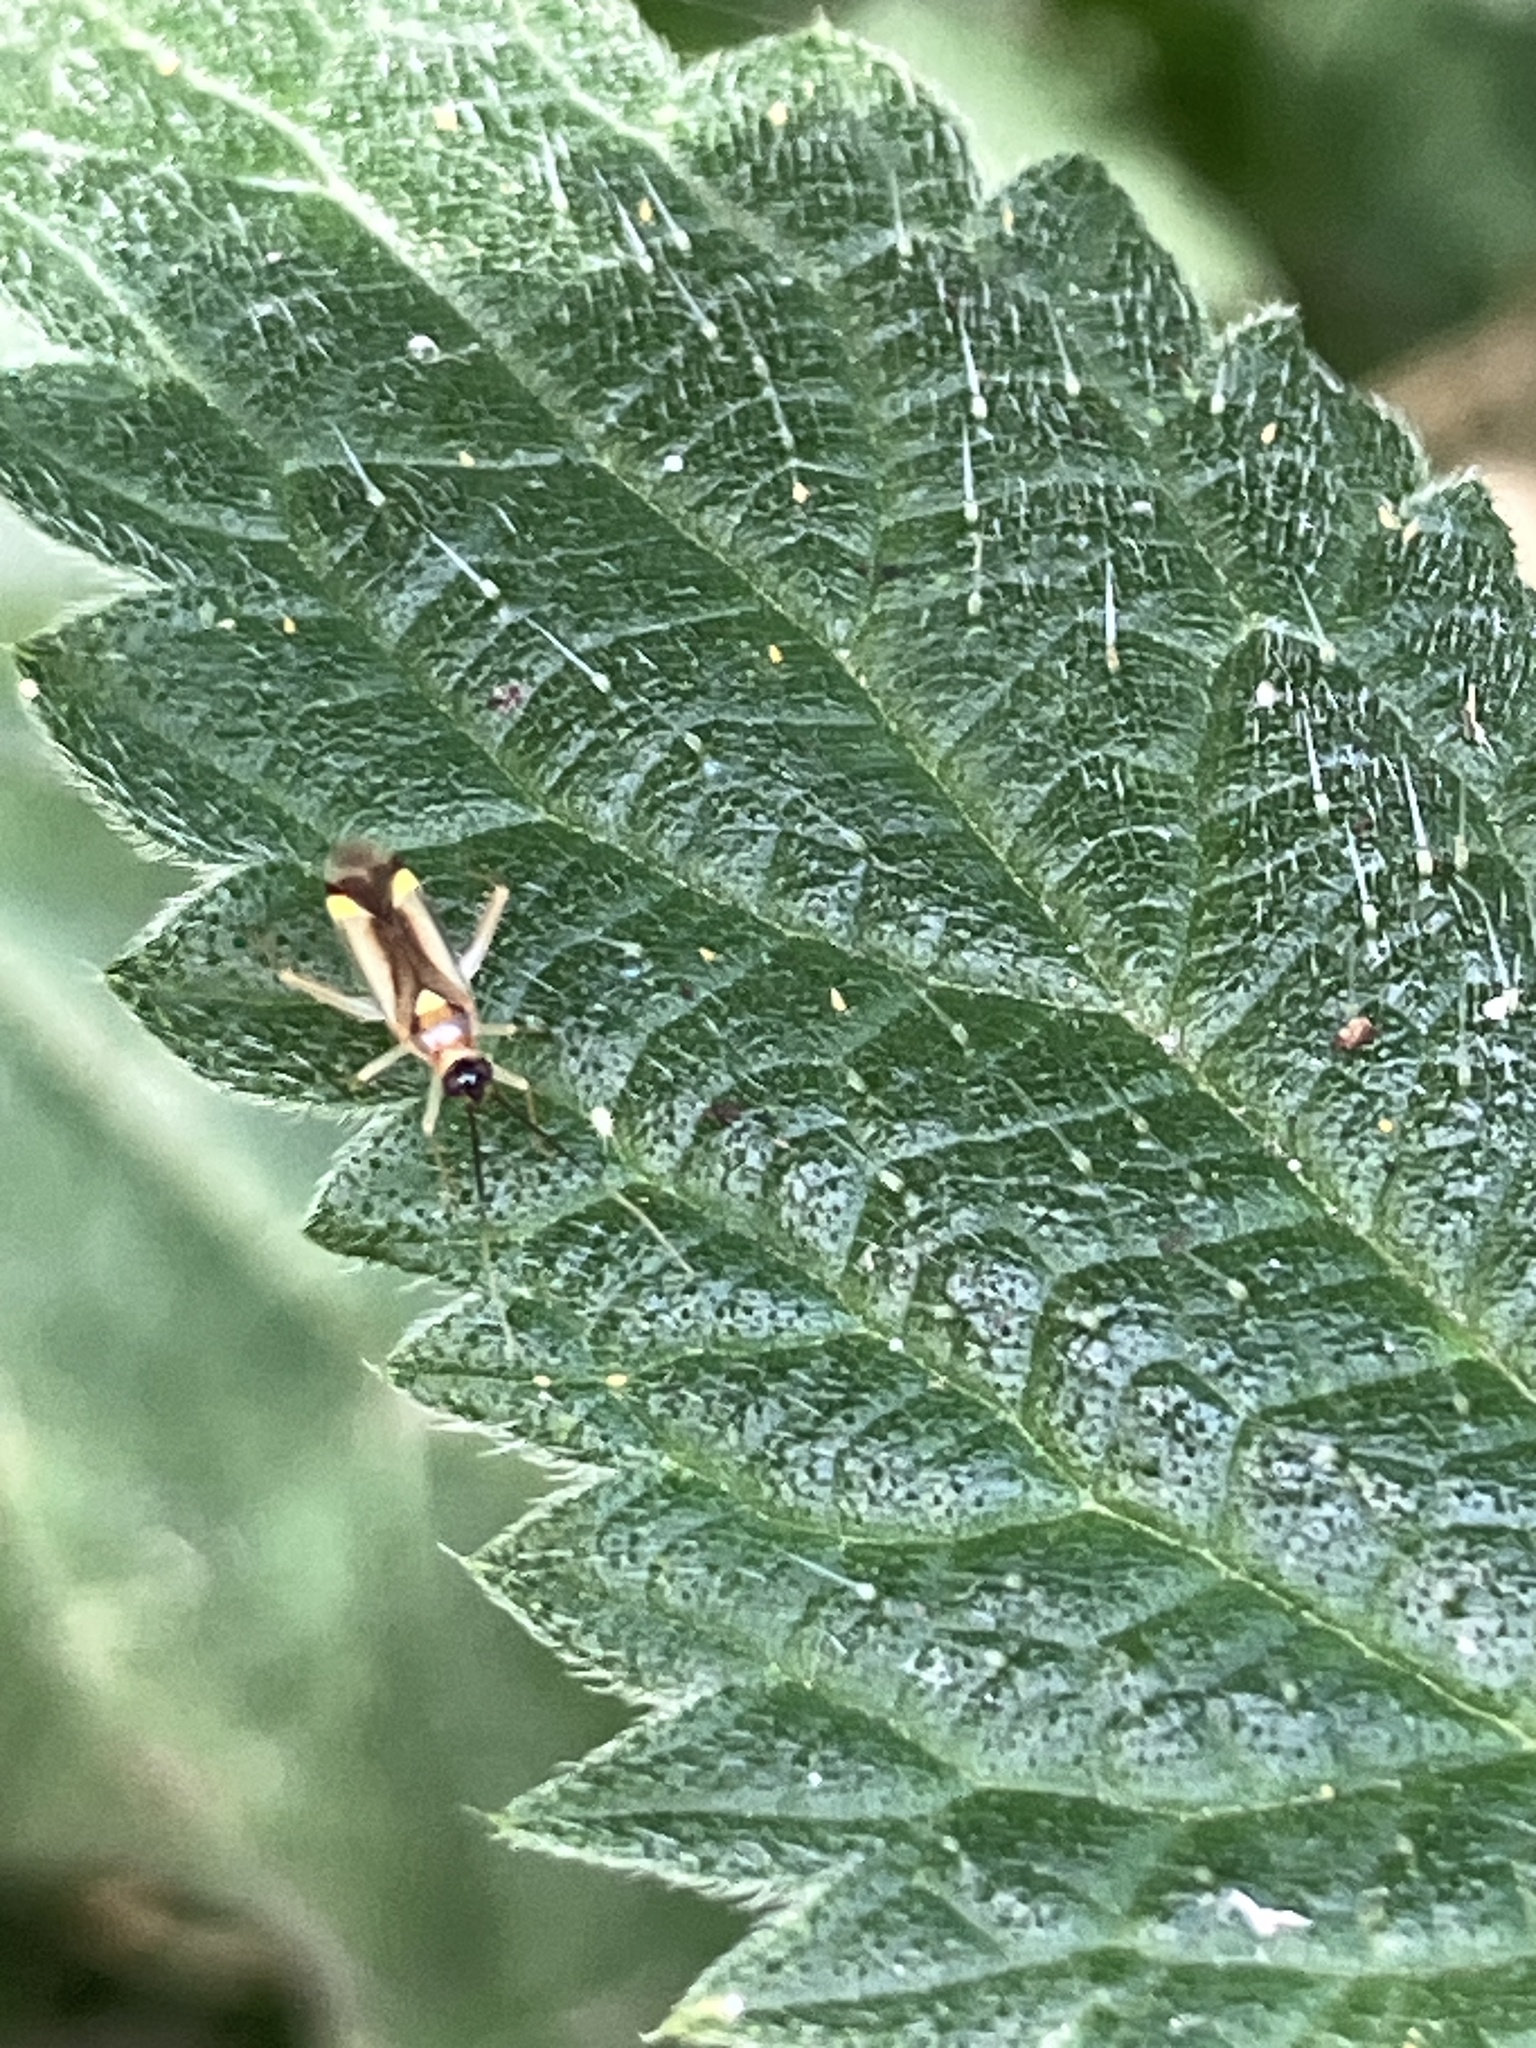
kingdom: Animalia
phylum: Arthropoda
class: Insecta
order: Hemiptera
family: Miridae
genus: Campyloneura
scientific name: Campyloneura virgula
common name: Predatory bug
